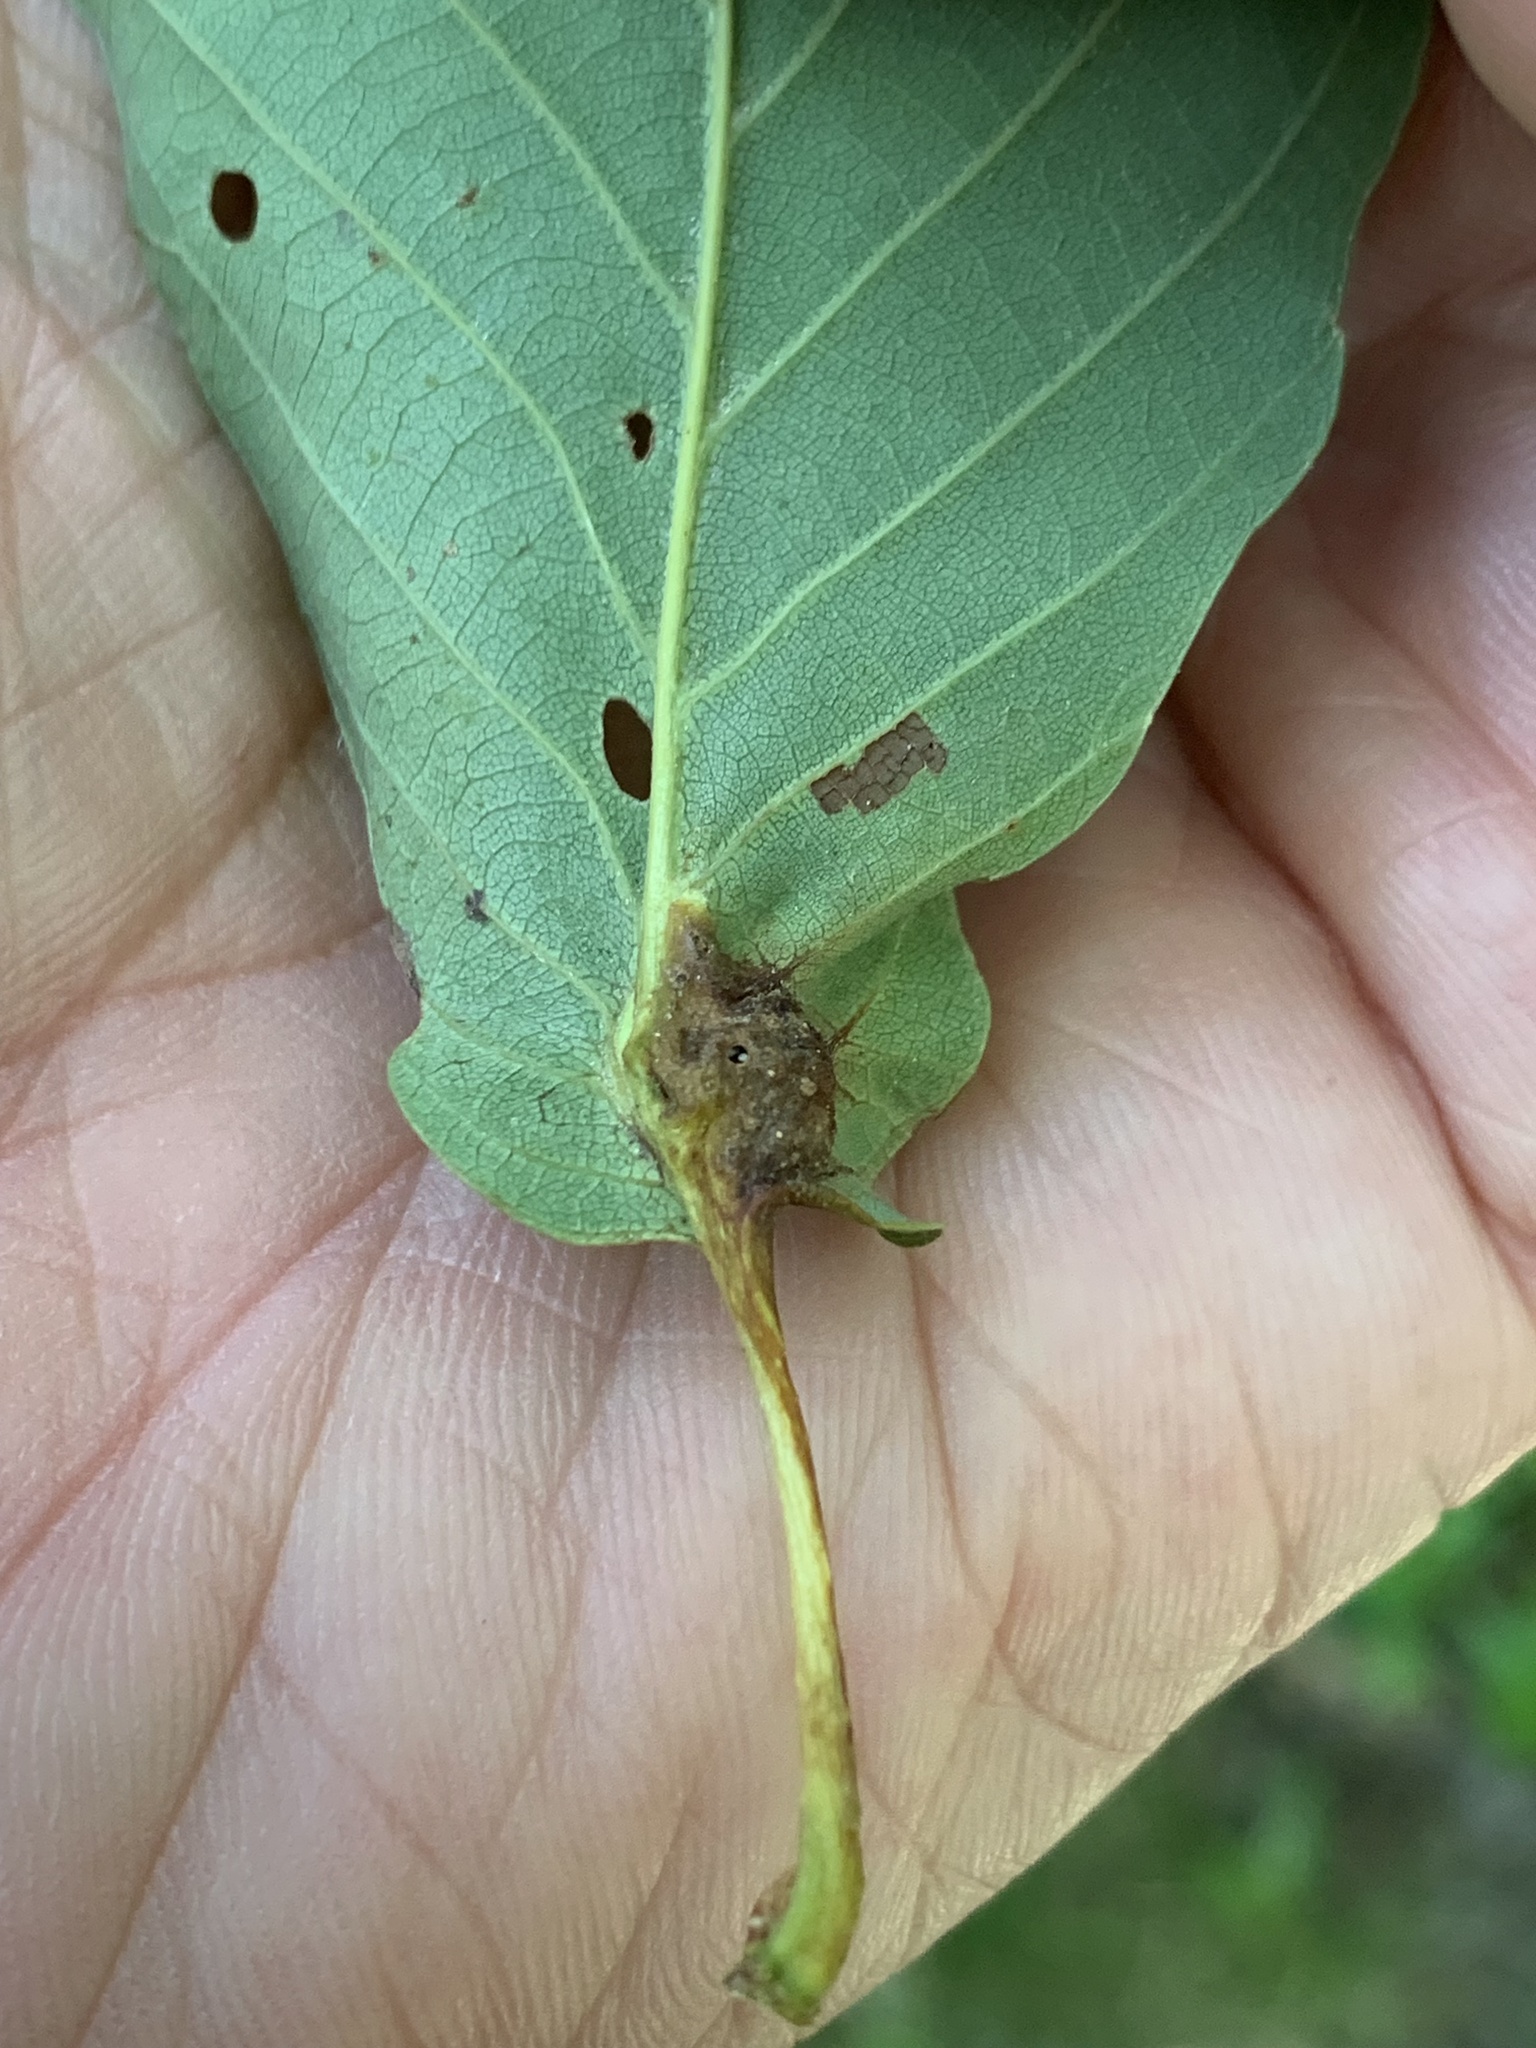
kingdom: Animalia
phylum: Arthropoda
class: Insecta
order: Hymenoptera
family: Cynipidae
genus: Andricus
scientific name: Andricus
